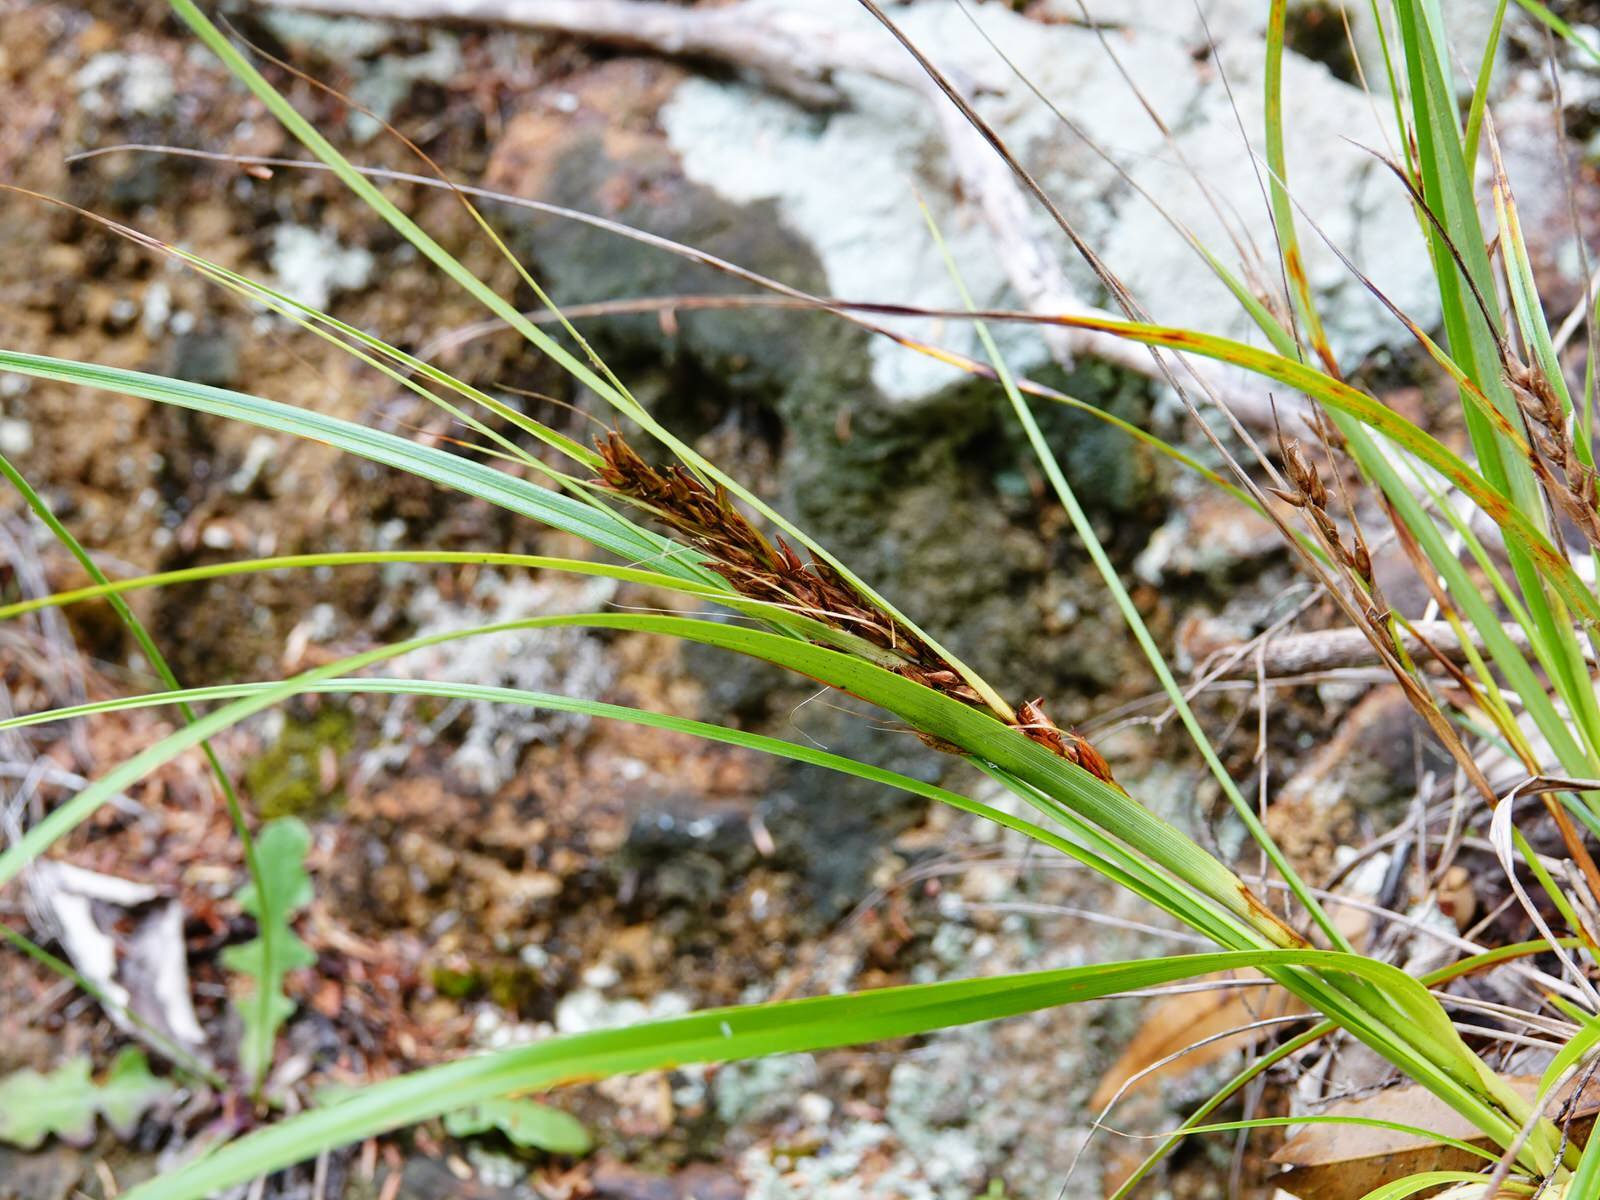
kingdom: Plantae
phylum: Tracheophyta
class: Liliopsida
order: Poales
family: Cyperaceae
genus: Morelotia
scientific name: Morelotia affinis
